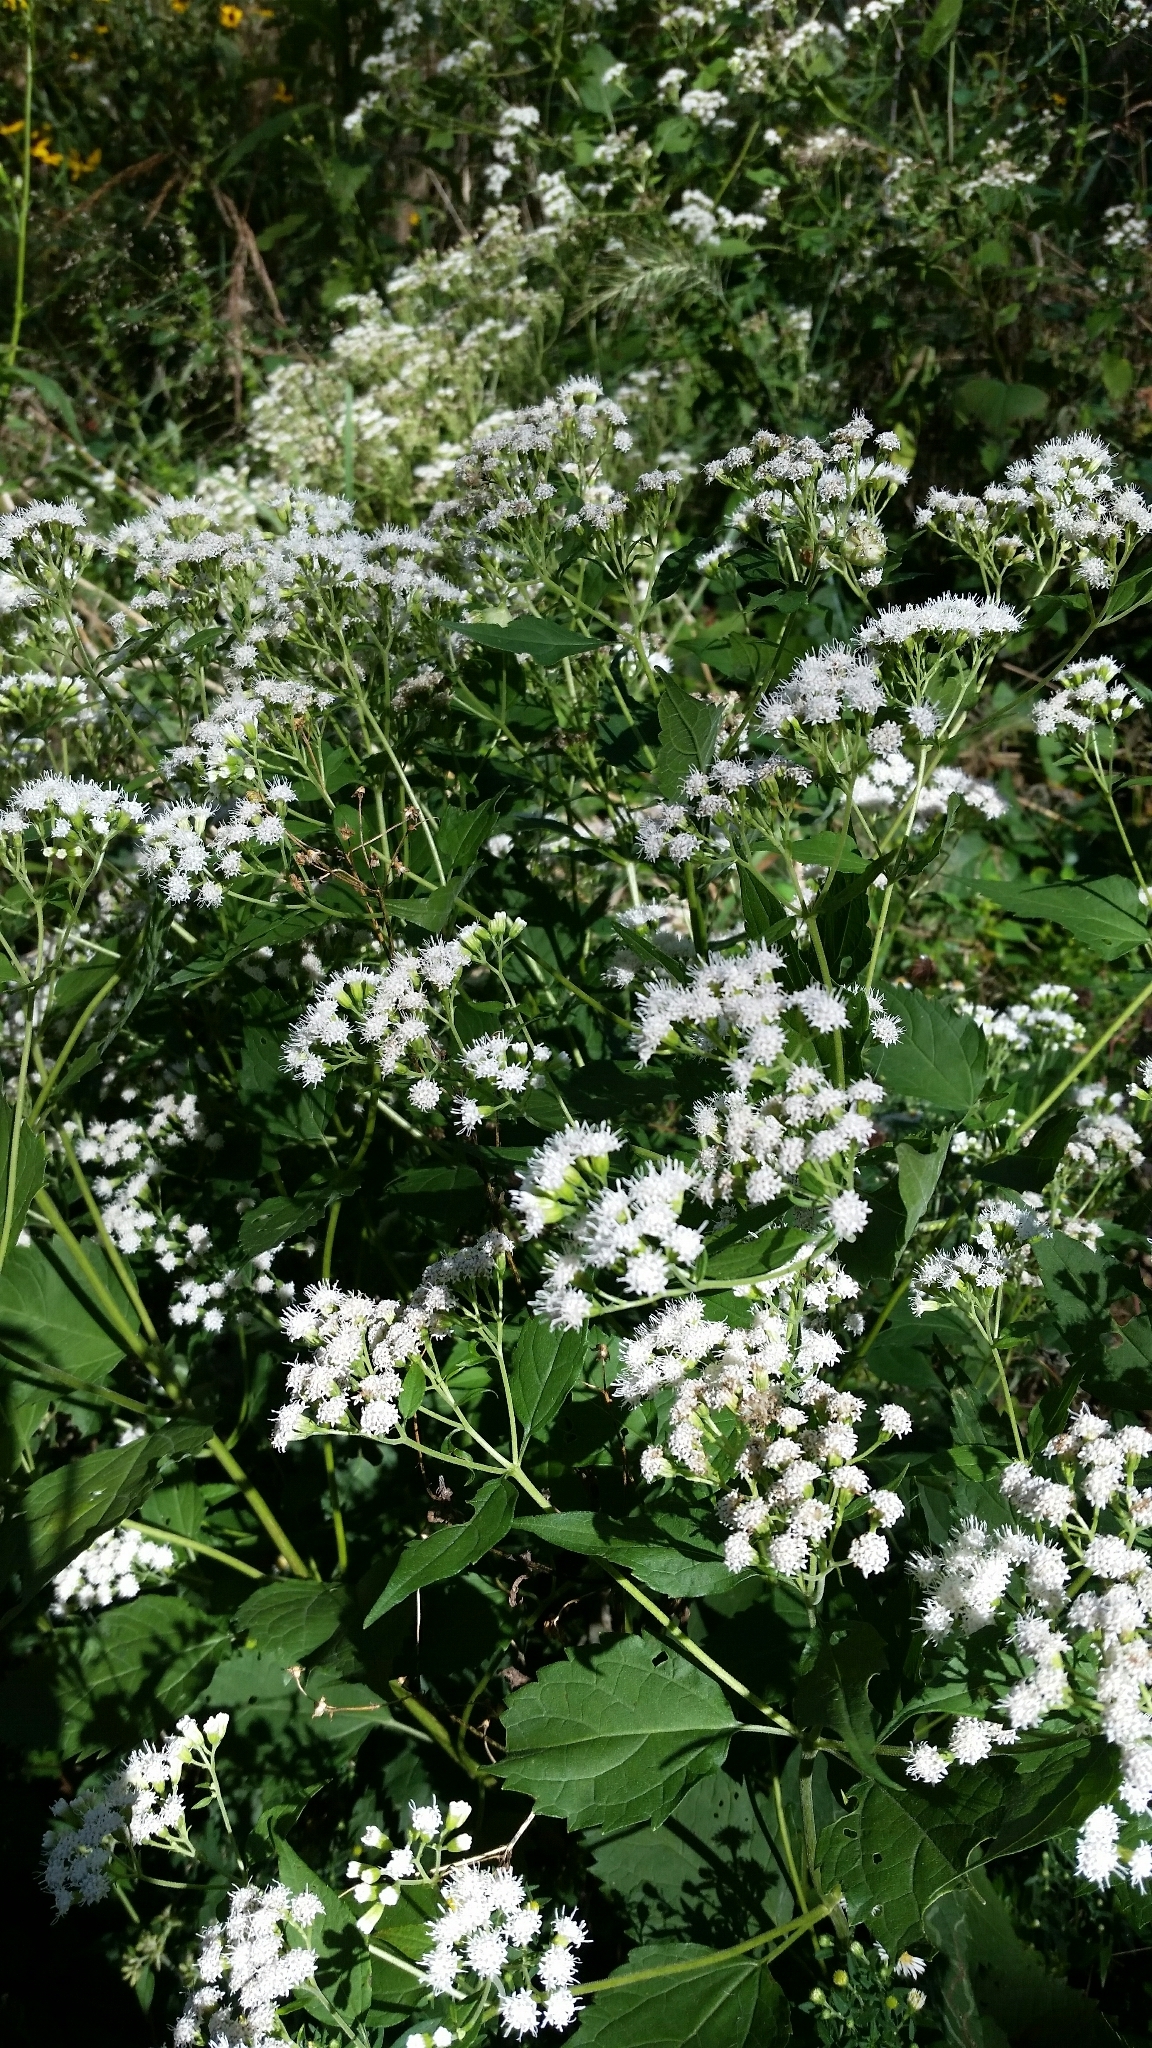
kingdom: Plantae
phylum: Tracheophyta
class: Magnoliopsida
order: Asterales
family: Asteraceae
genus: Ageratina
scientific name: Ageratina altissima
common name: White snakeroot
